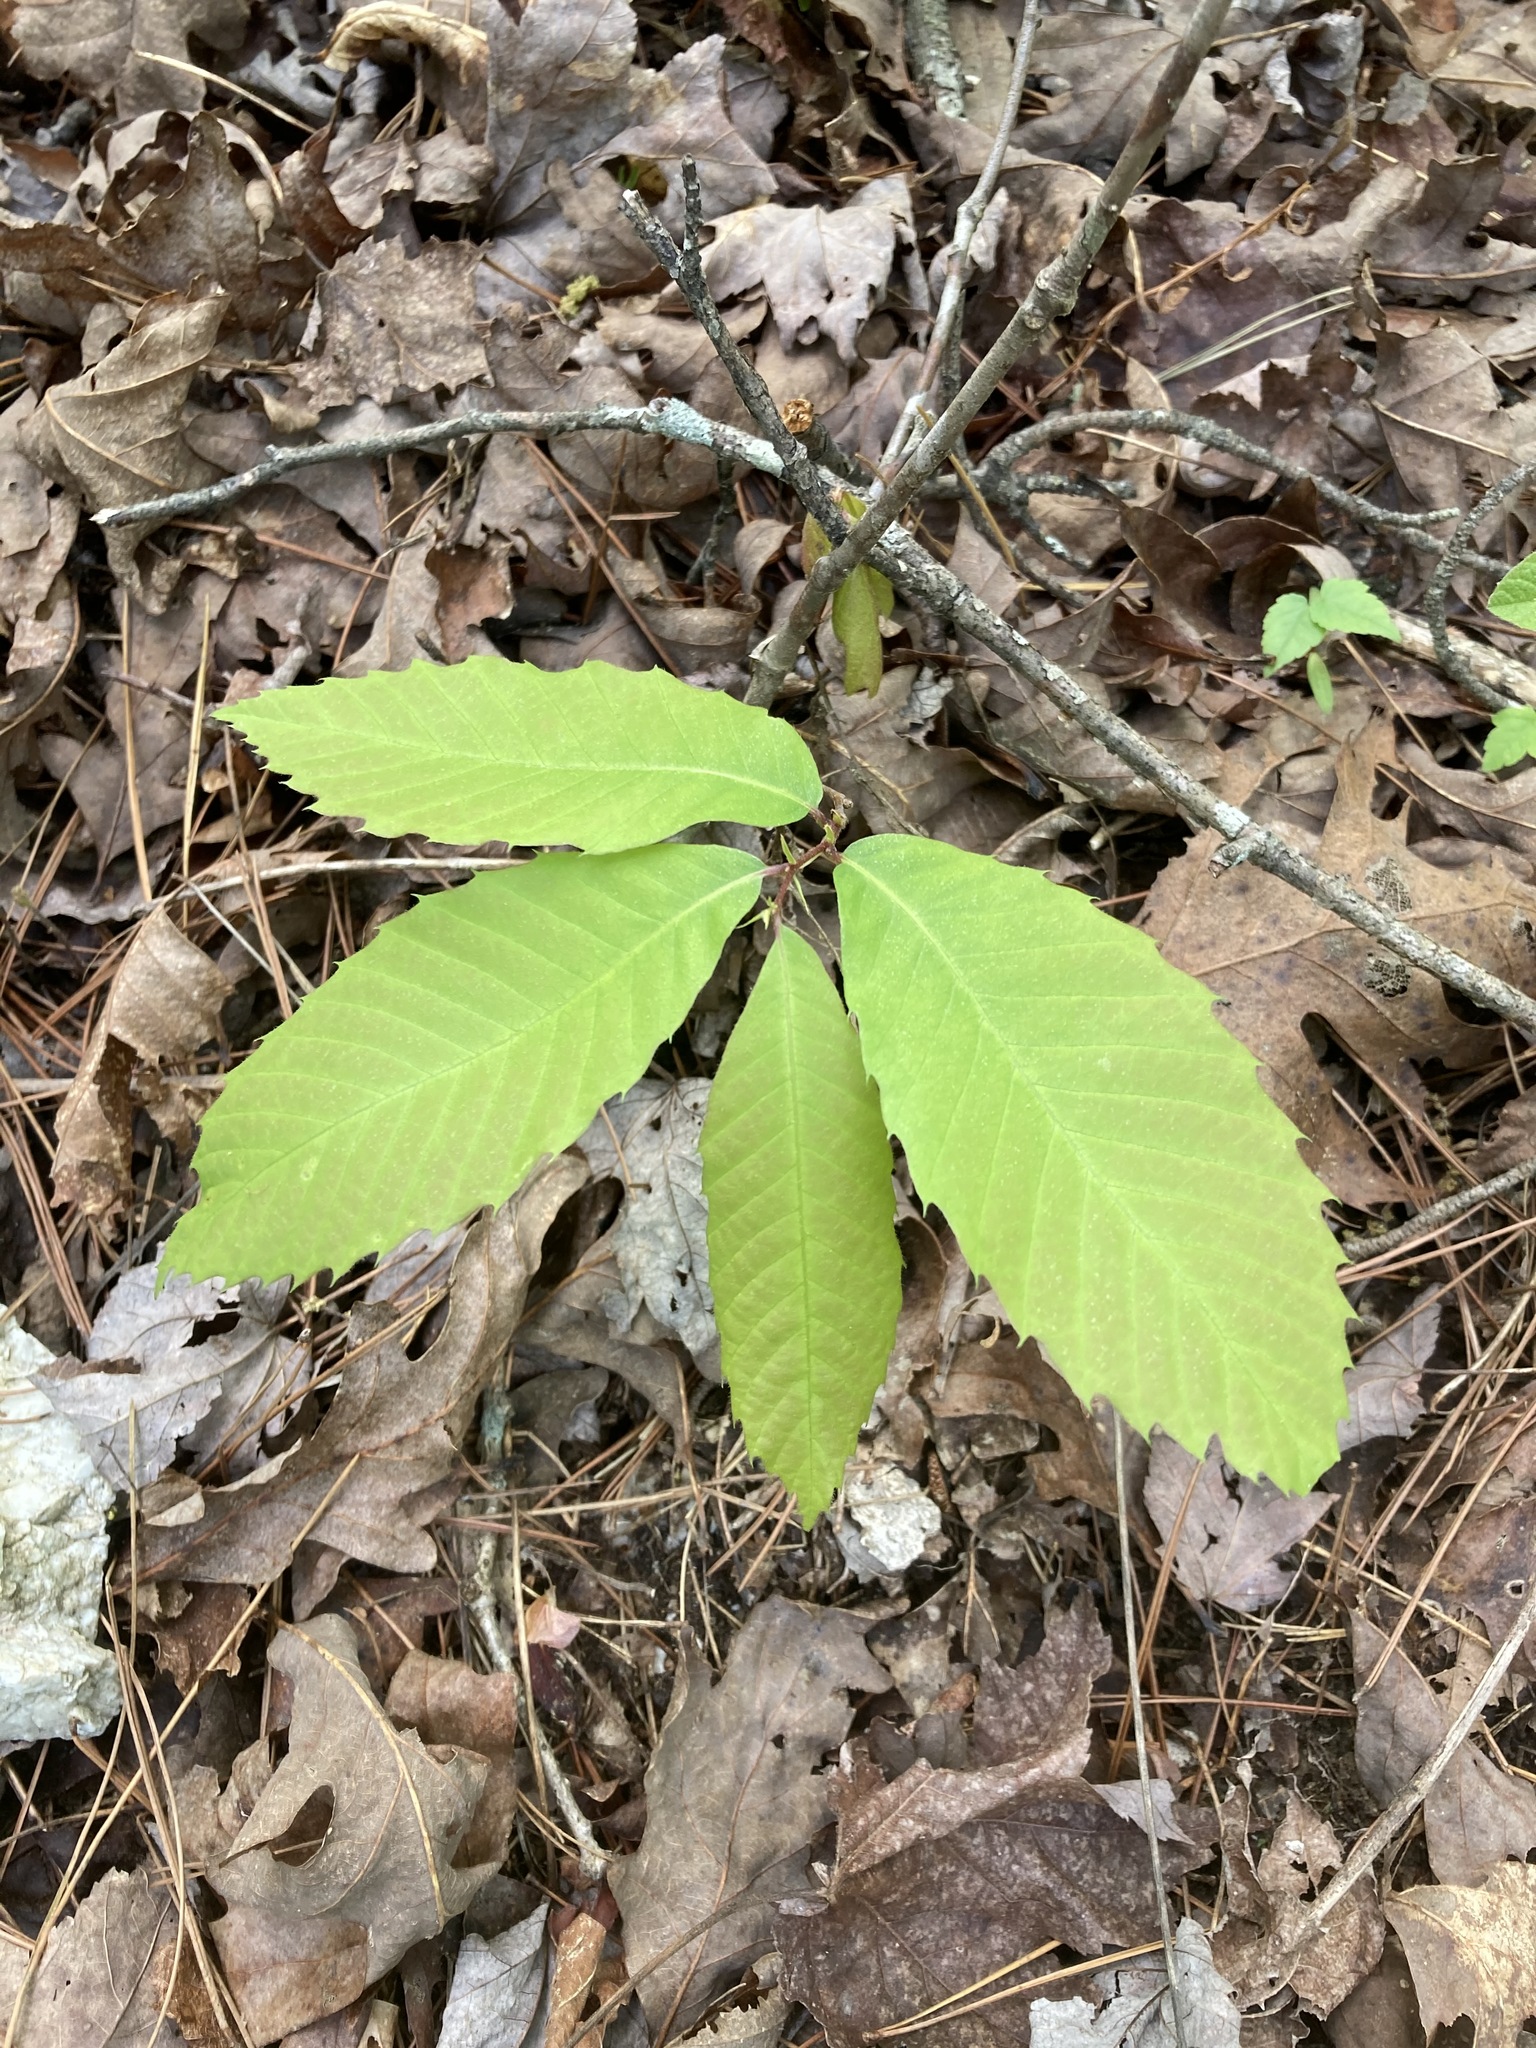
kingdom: Plantae
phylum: Tracheophyta
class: Magnoliopsida
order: Fagales
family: Fagaceae
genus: Castanea
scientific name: Castanea ozarkensis
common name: Ozark chinkapin
